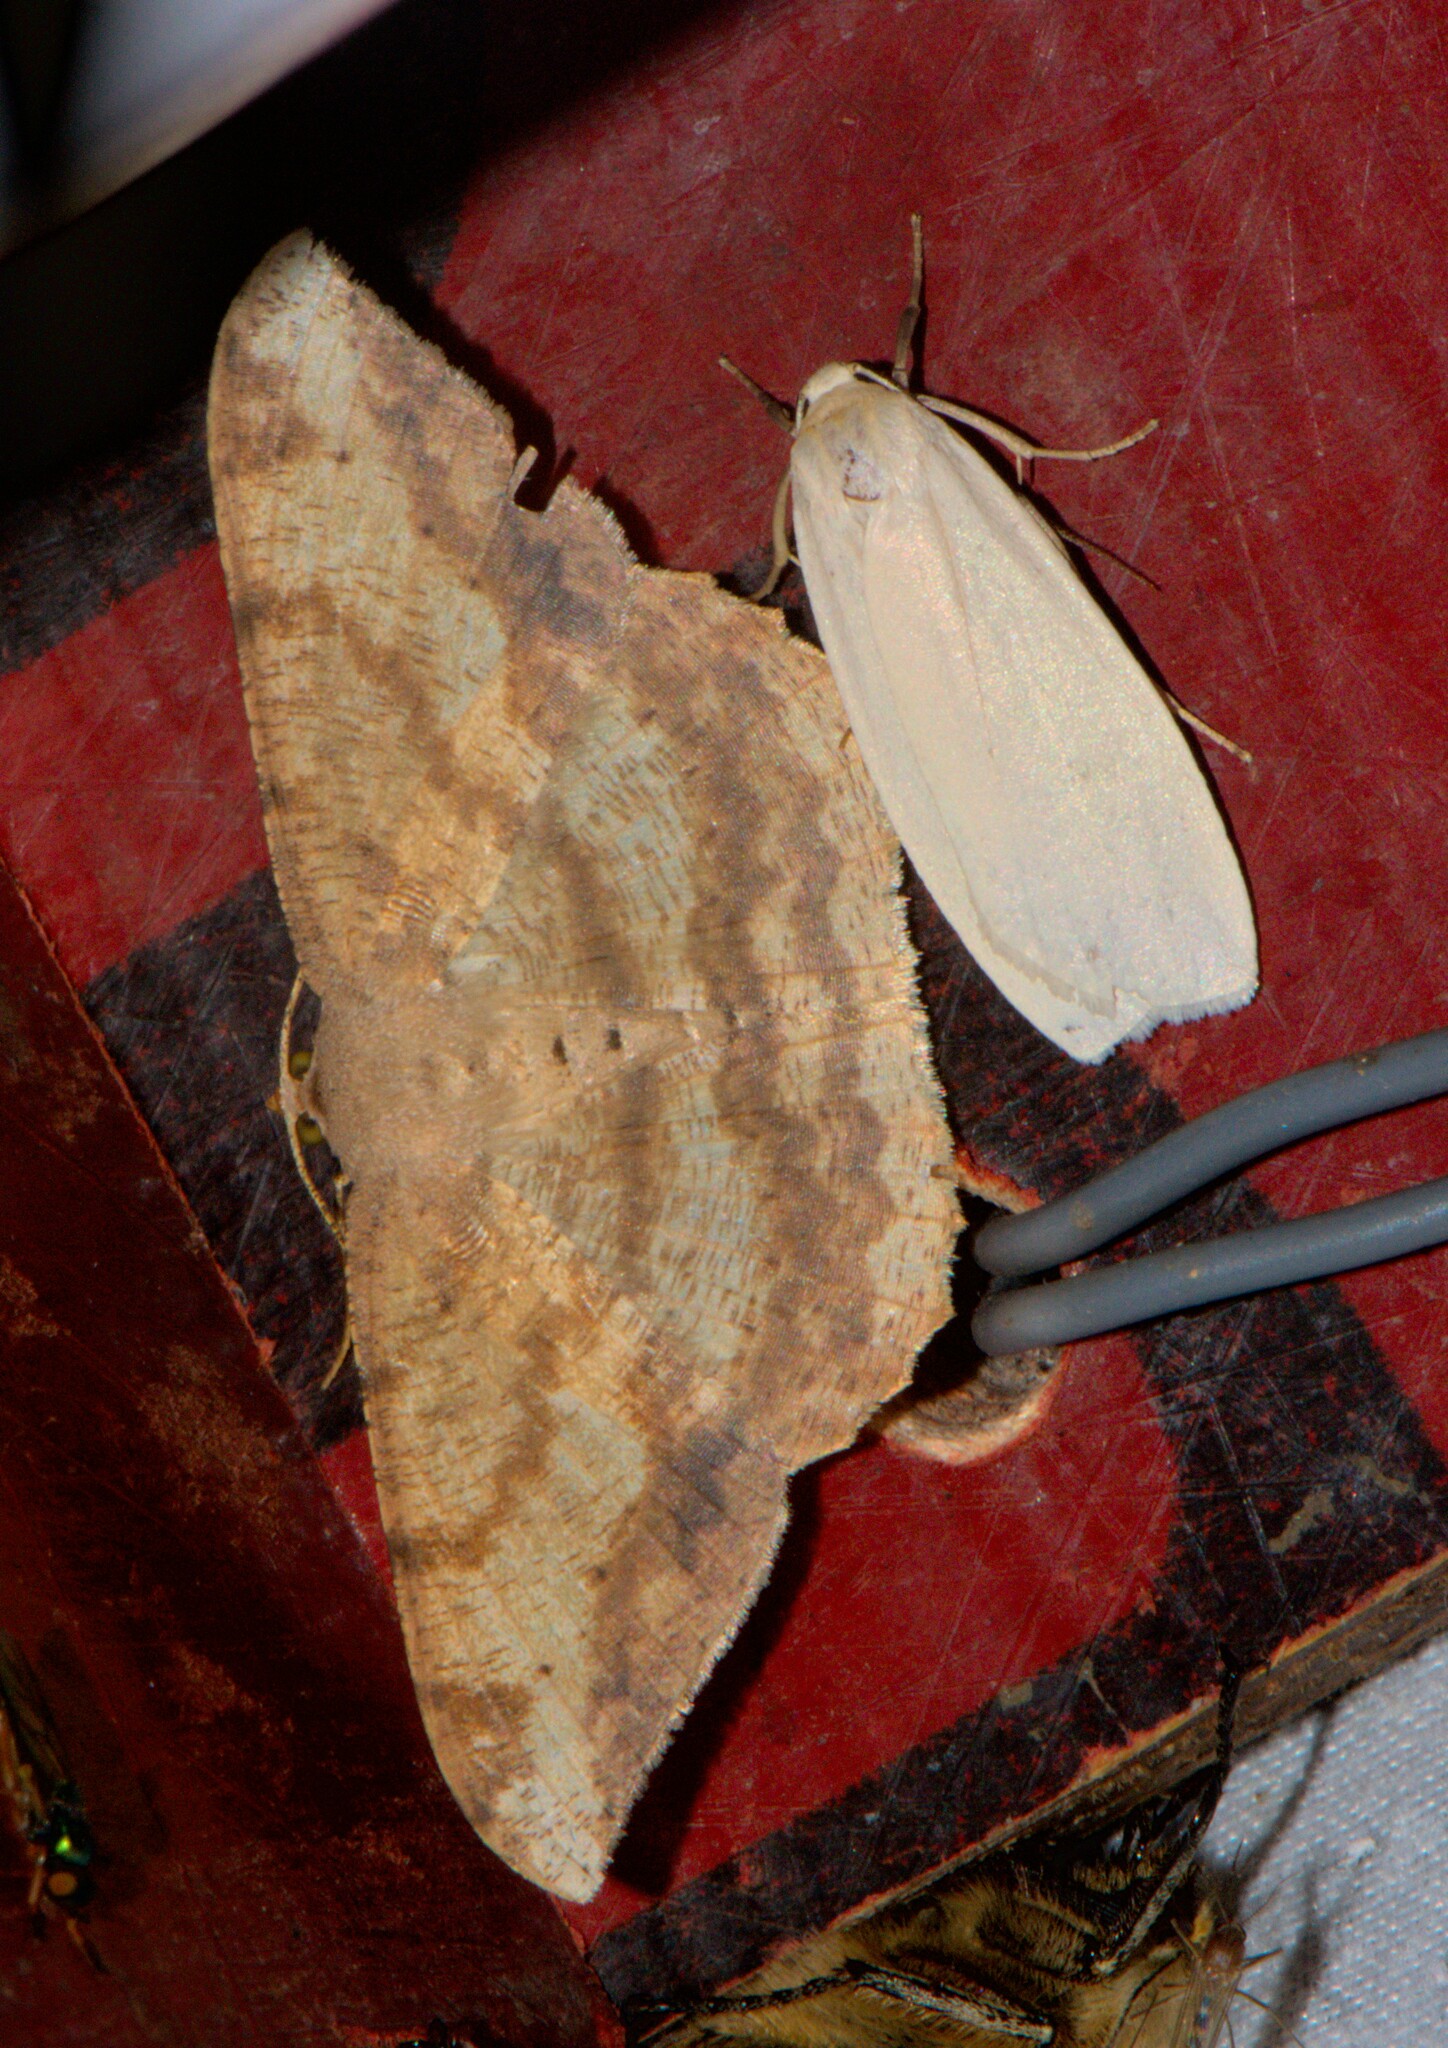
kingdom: Animalia
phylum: Arthropoda
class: Insecta
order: Lepidoptera
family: Geometridae
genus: Luxiaria
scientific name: Luxiaria amasa
